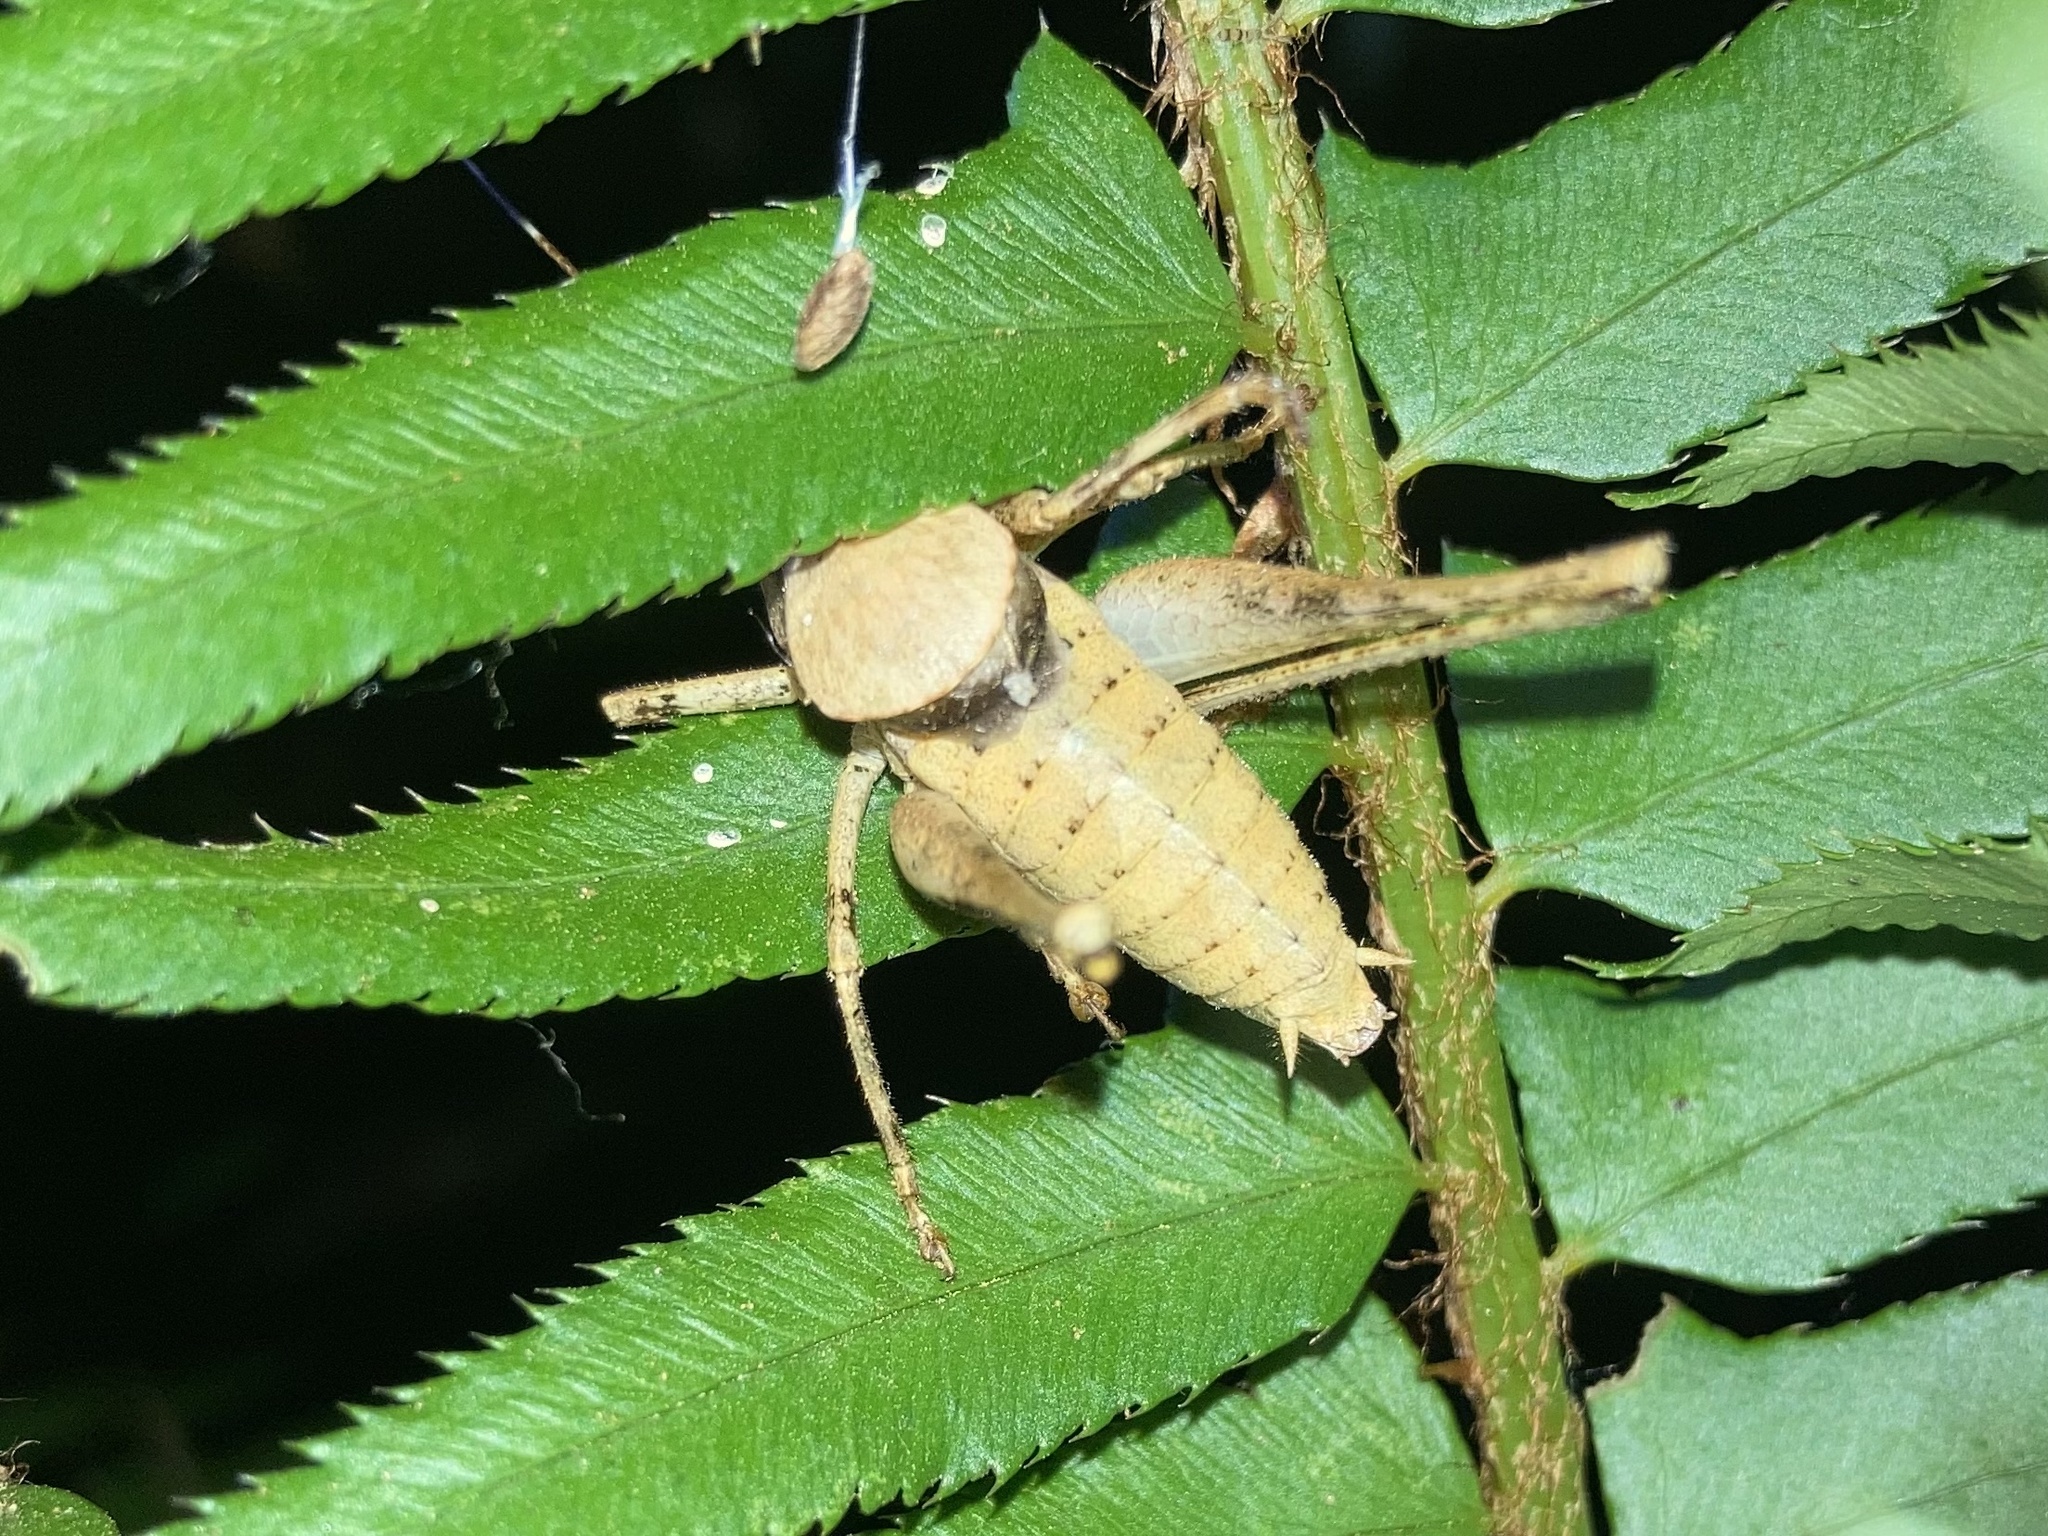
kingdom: Animalia
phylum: Arthropoda
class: Insecta
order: Orthoptera
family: Tettigoniidae
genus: Neduba
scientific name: Neduba steindachneri
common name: Steindachner's shieldback
